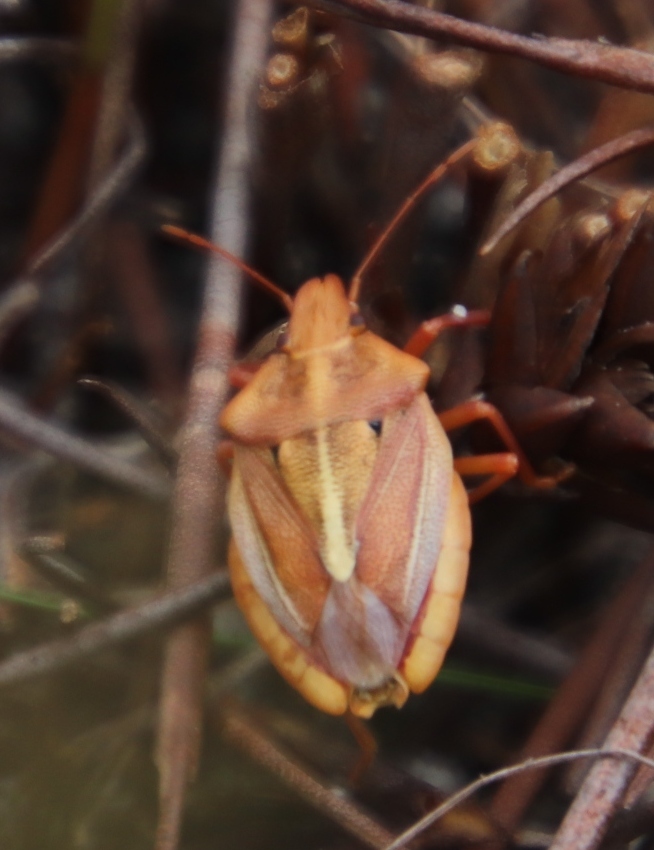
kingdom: Animalia
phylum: Arthropoda
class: Insecta
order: Hemiptera
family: Pentatomidae
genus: Tropicorypha
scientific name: Tropicorypha
